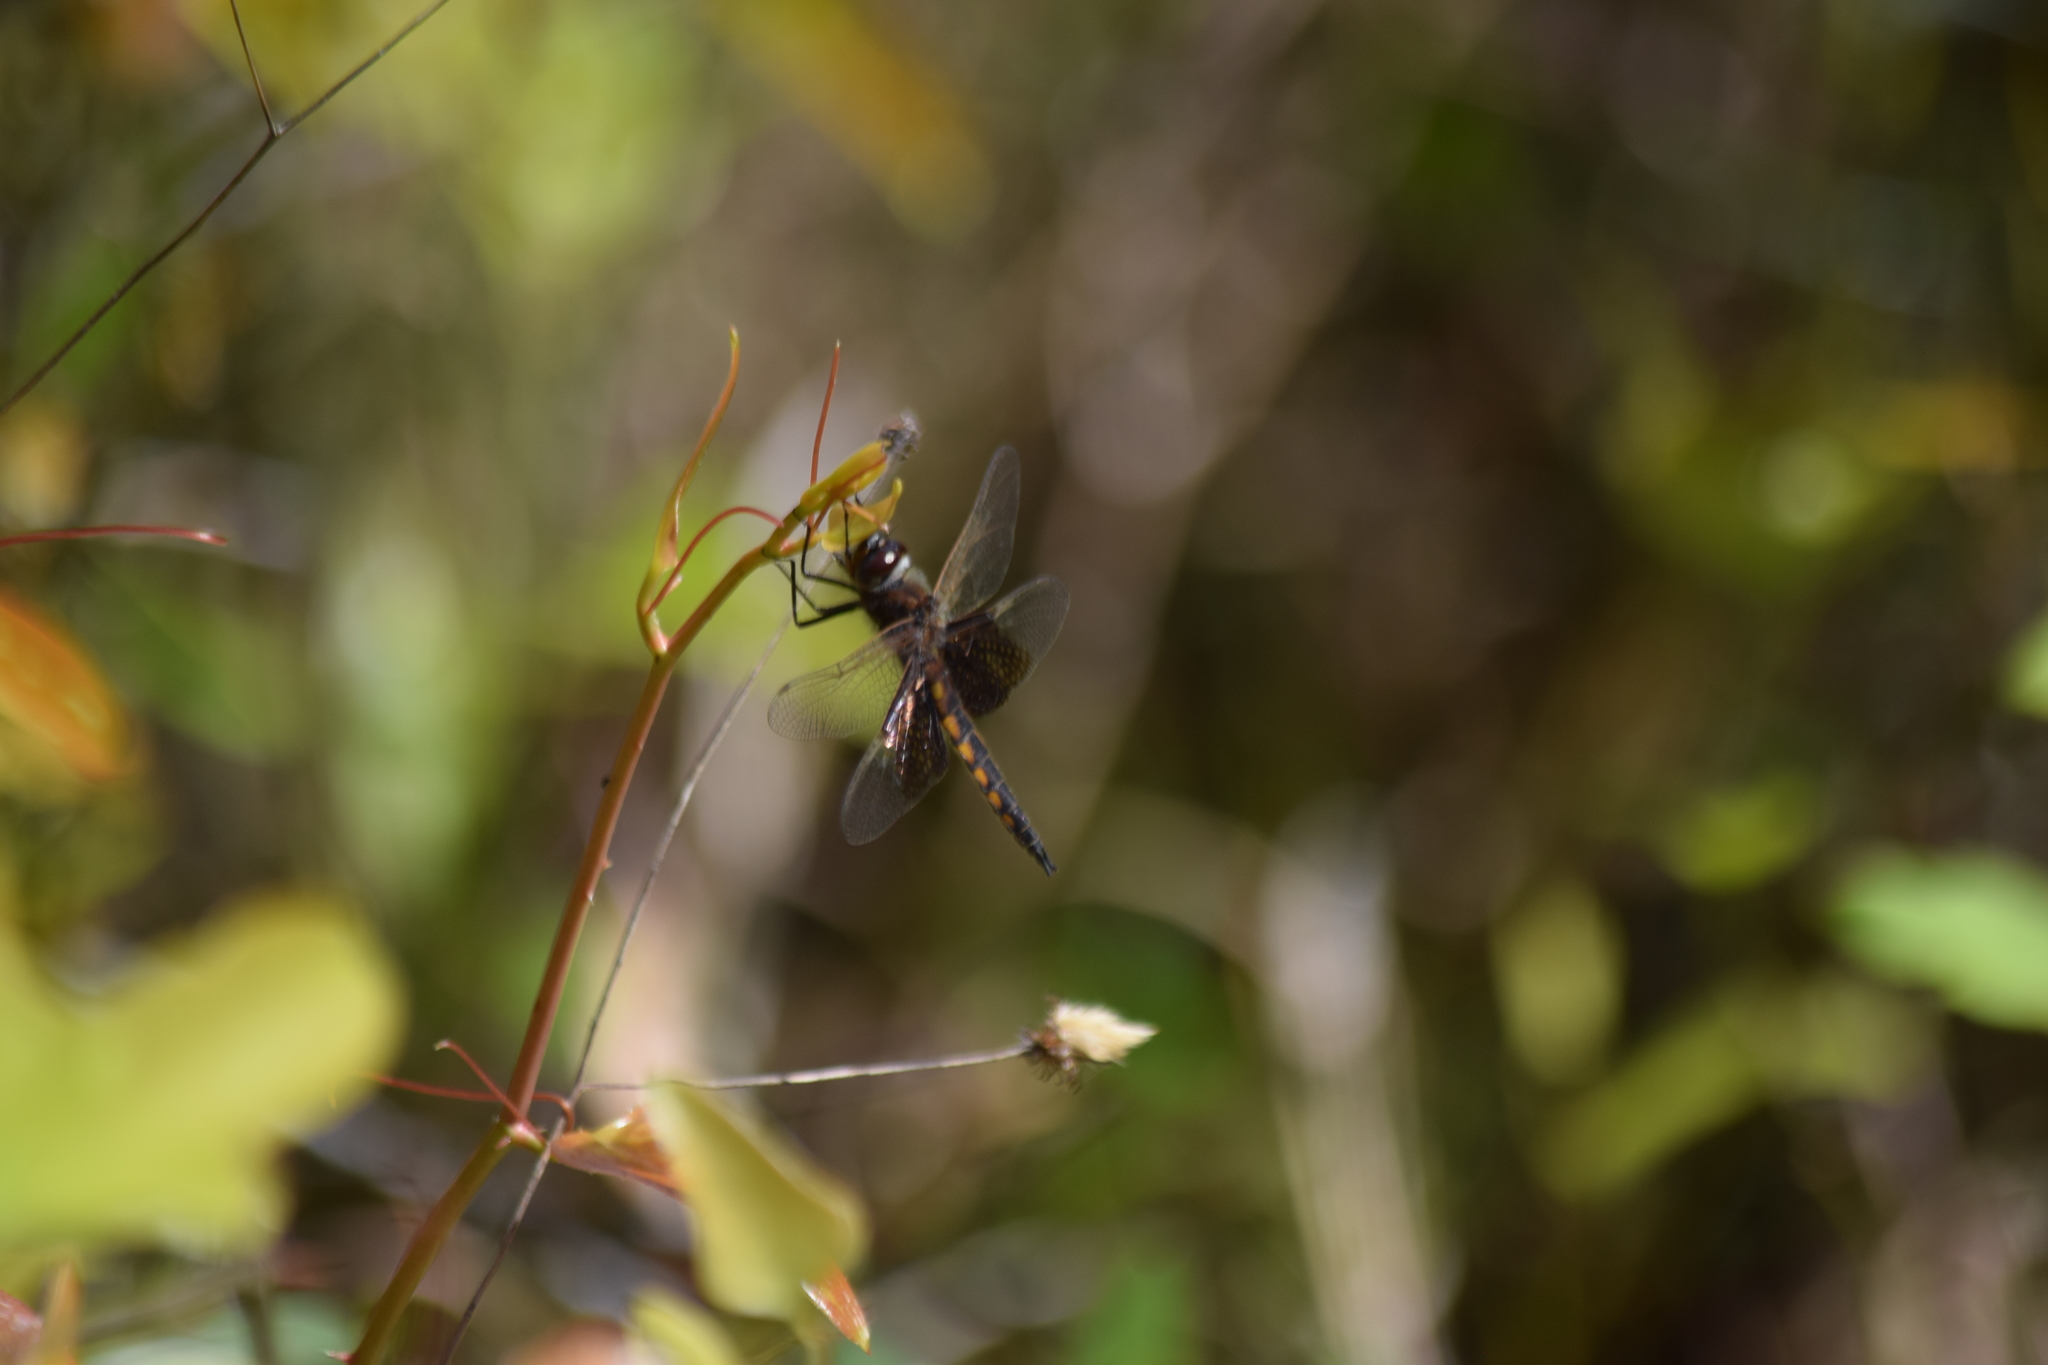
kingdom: Animalia
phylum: Arthropoda
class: Insecta
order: Odonata
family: Corduliidae
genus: Epitheca
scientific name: Epitheca semiaquea
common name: Mantled baskettail
